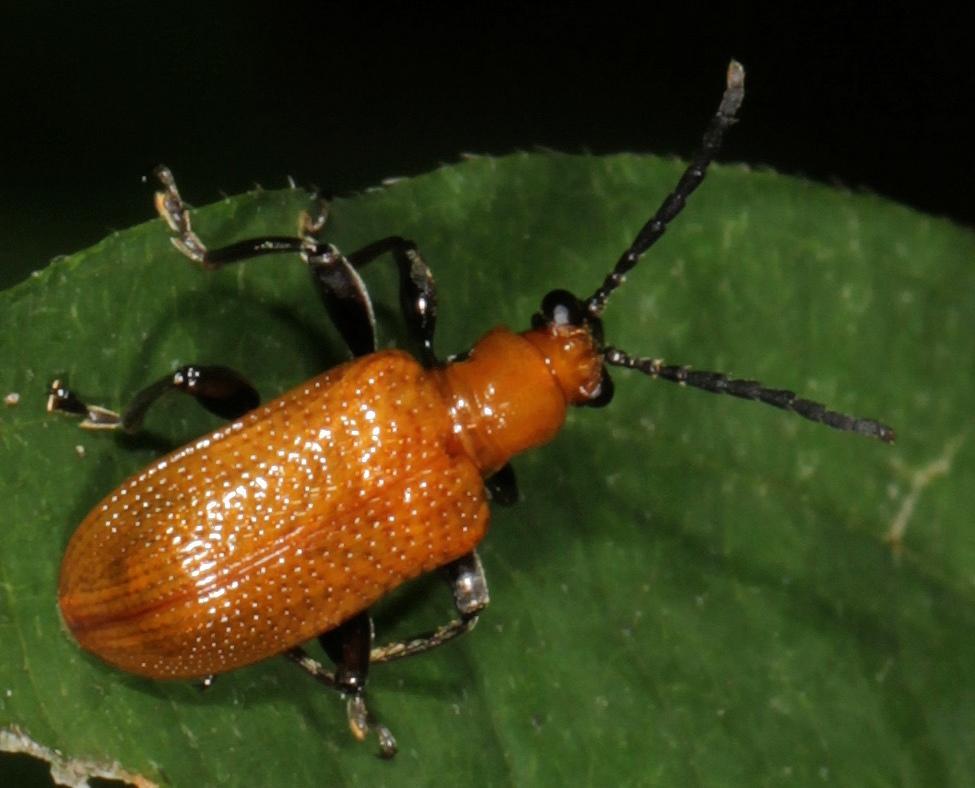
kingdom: Animalia
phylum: Arthropoda
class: Insecta
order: Coleoptera
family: Chrysomelidae
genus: Lema
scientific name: Lema
